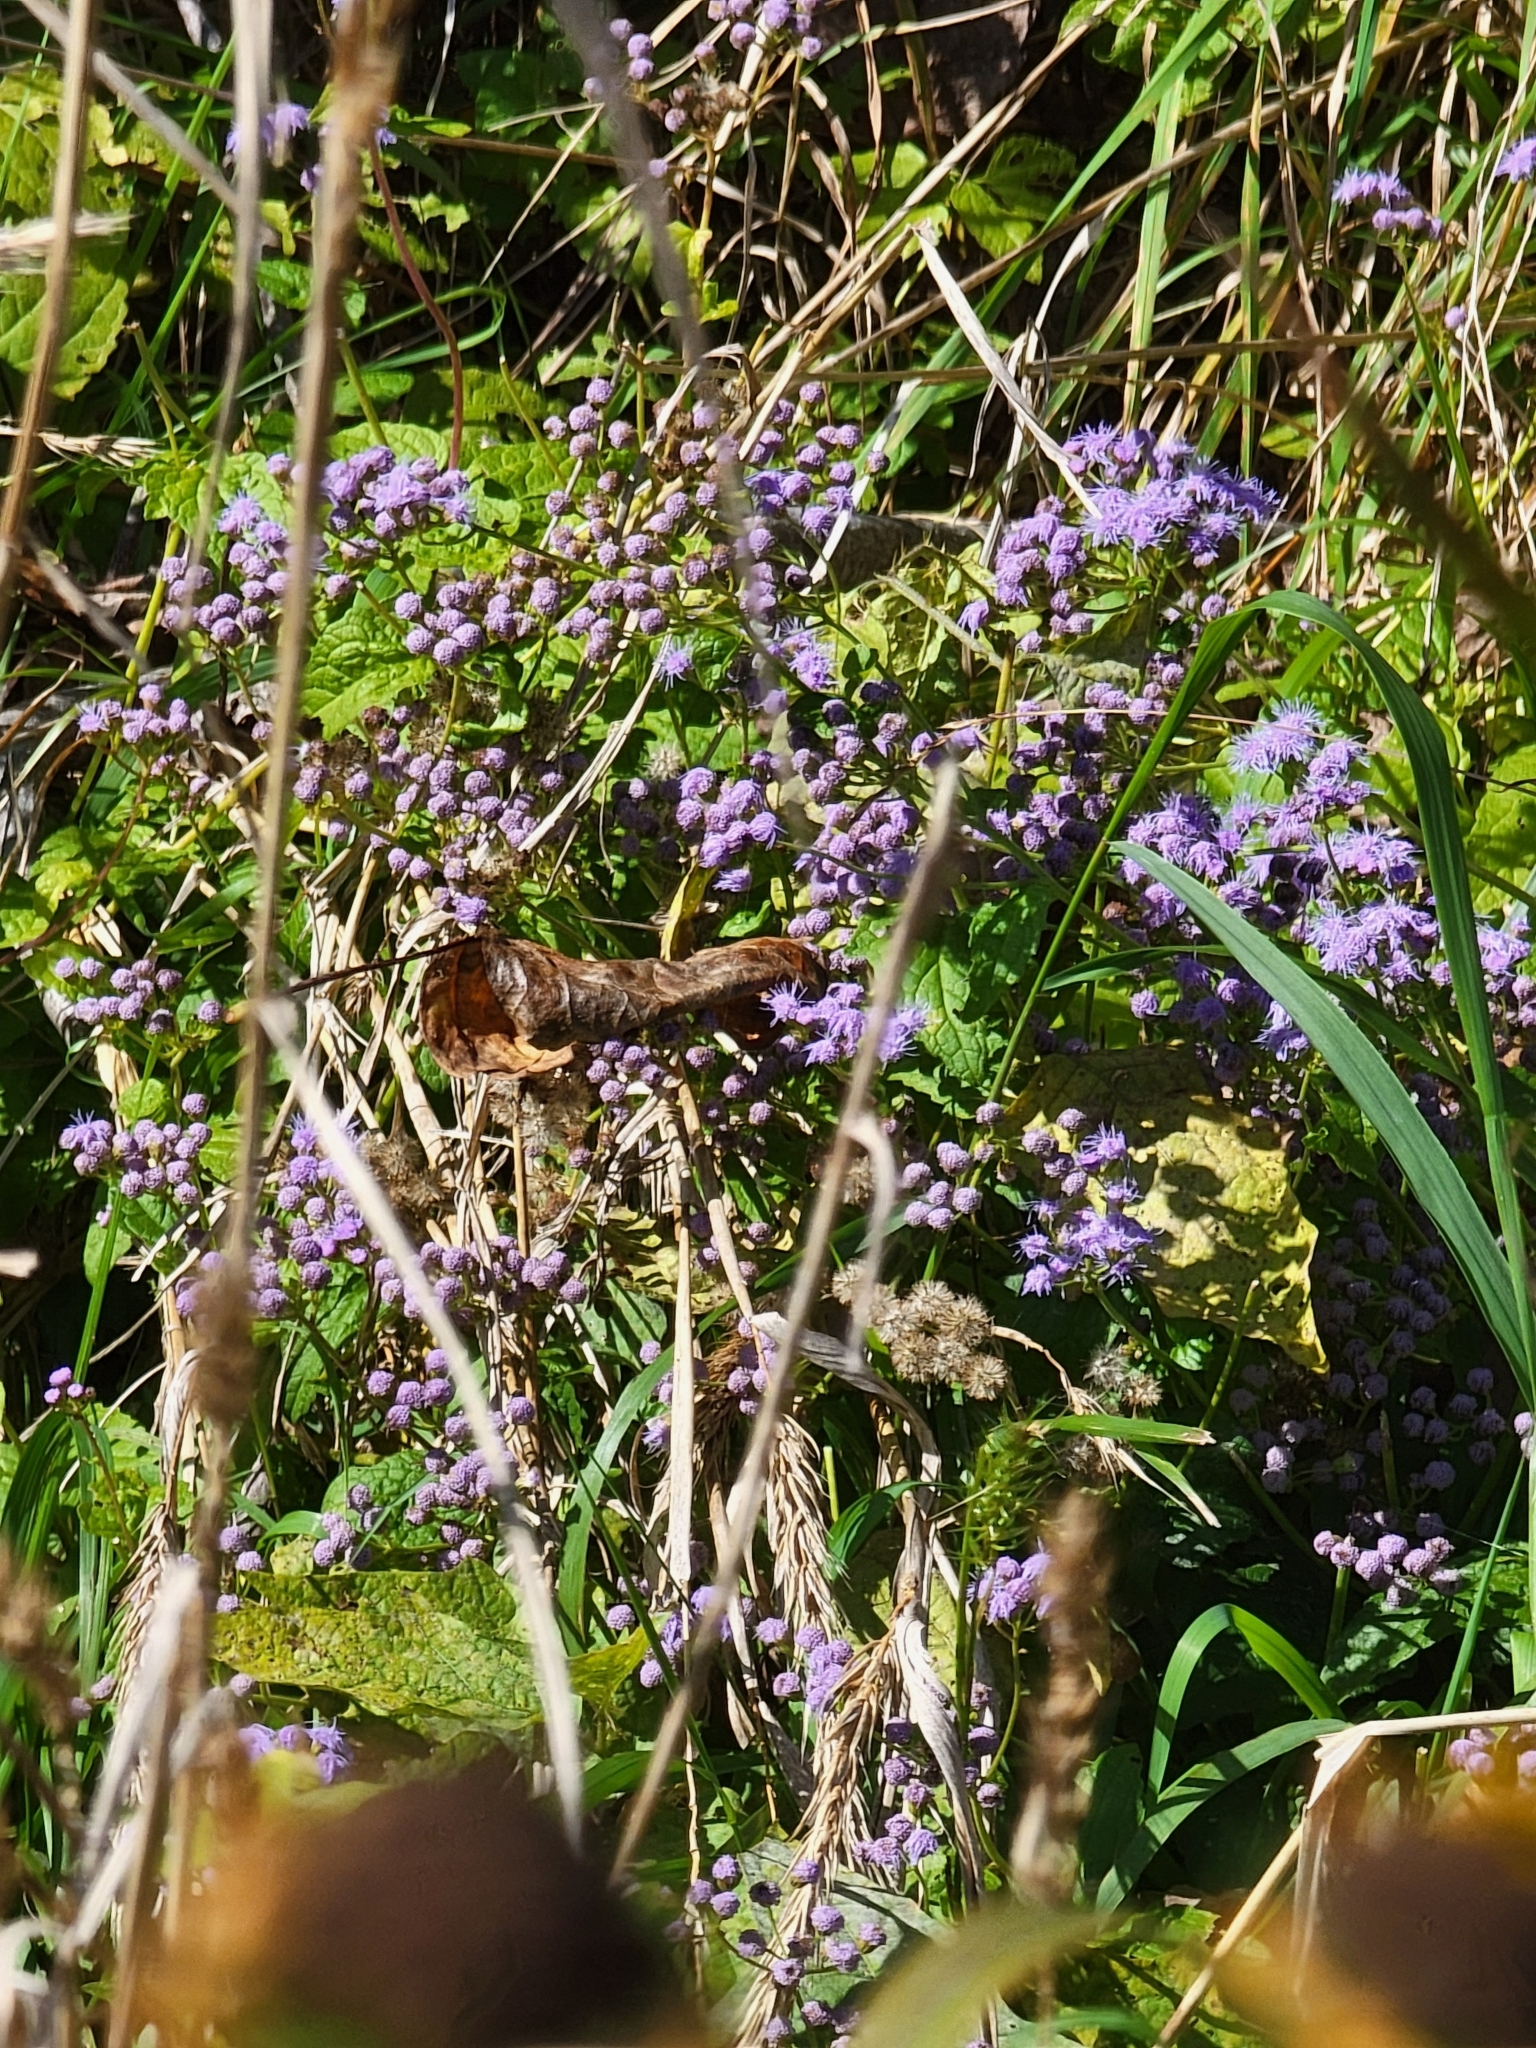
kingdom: Plantae
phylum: Tracheophyta
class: Magnoliopsida
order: Asterales
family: Asteraceae
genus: Conoclinium
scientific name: Conoclinium coelestinum
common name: Blue mistflower
